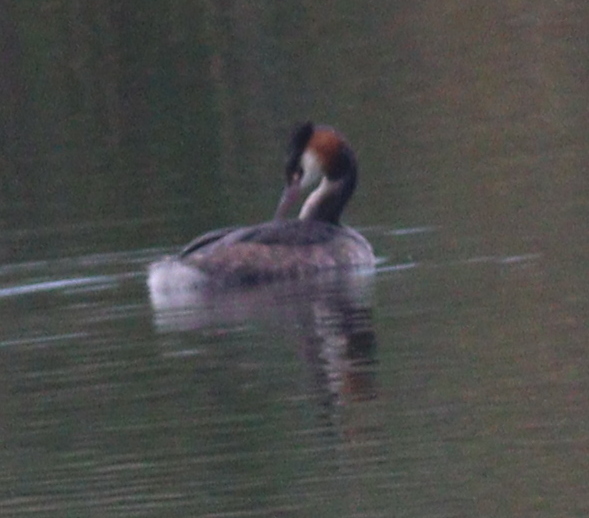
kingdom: Animalia
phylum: Chordata
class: Aves
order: Podicipediformes
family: Podicipedidae
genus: Podiceps
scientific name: Podiceps cristatus
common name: Great crested grebe
